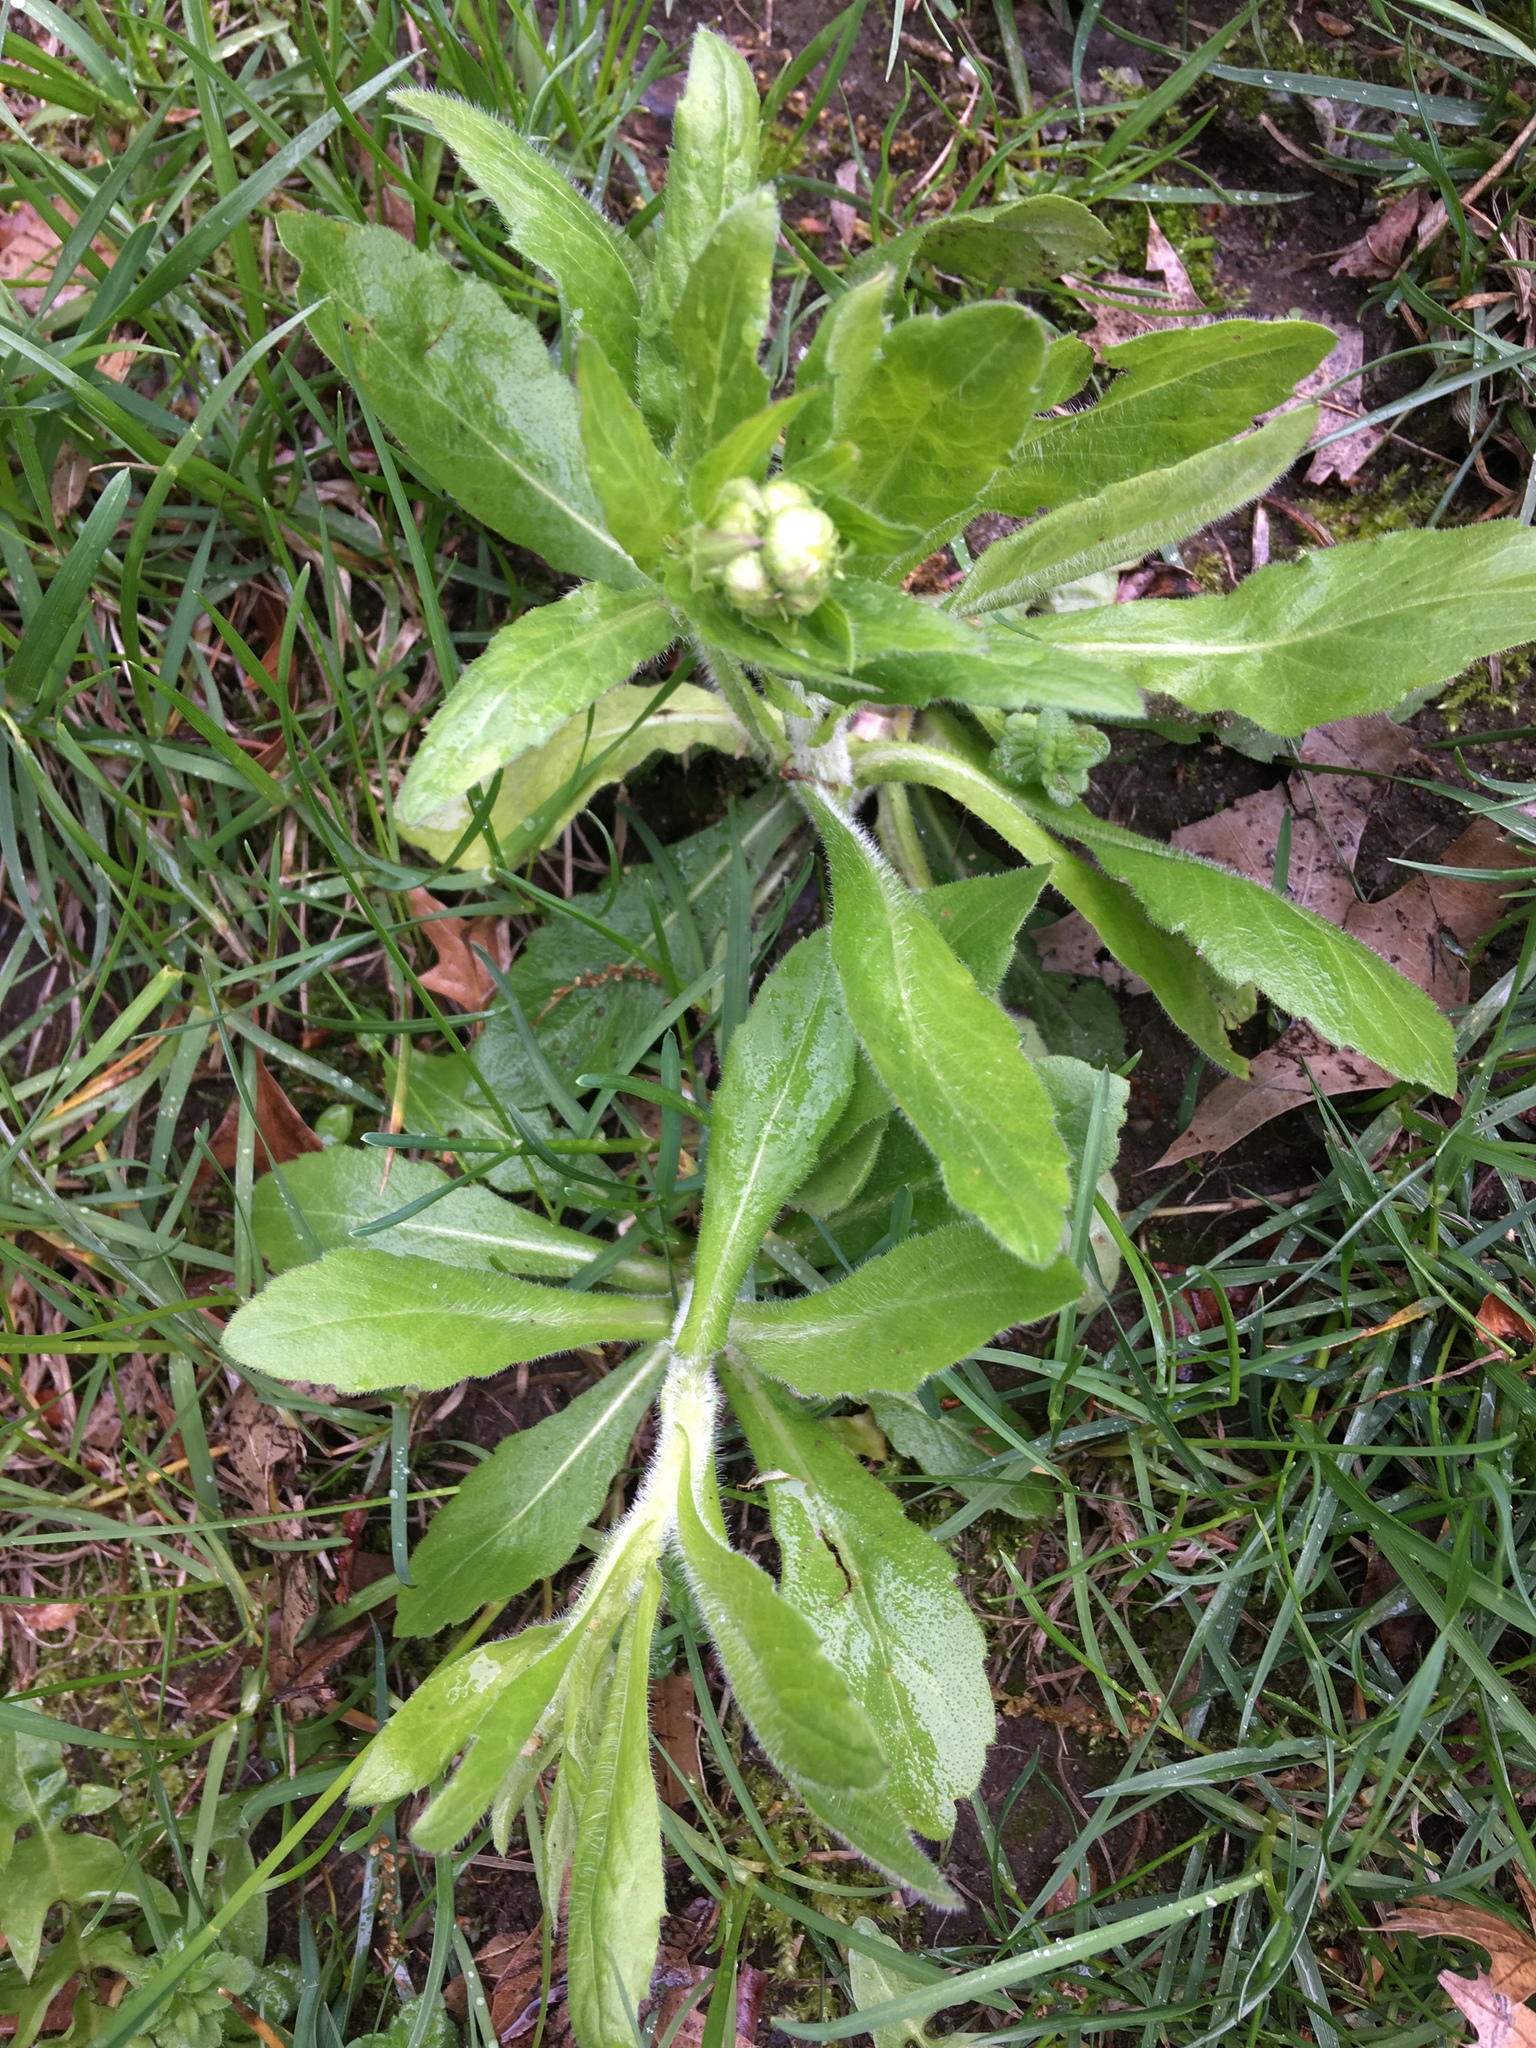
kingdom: Plantae
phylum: Tracheophyta
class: Magnoliopsida
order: Asterales
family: Asteraceae
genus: Erigeron
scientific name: Erigeron philadelphicus
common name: Robin's-plantain
